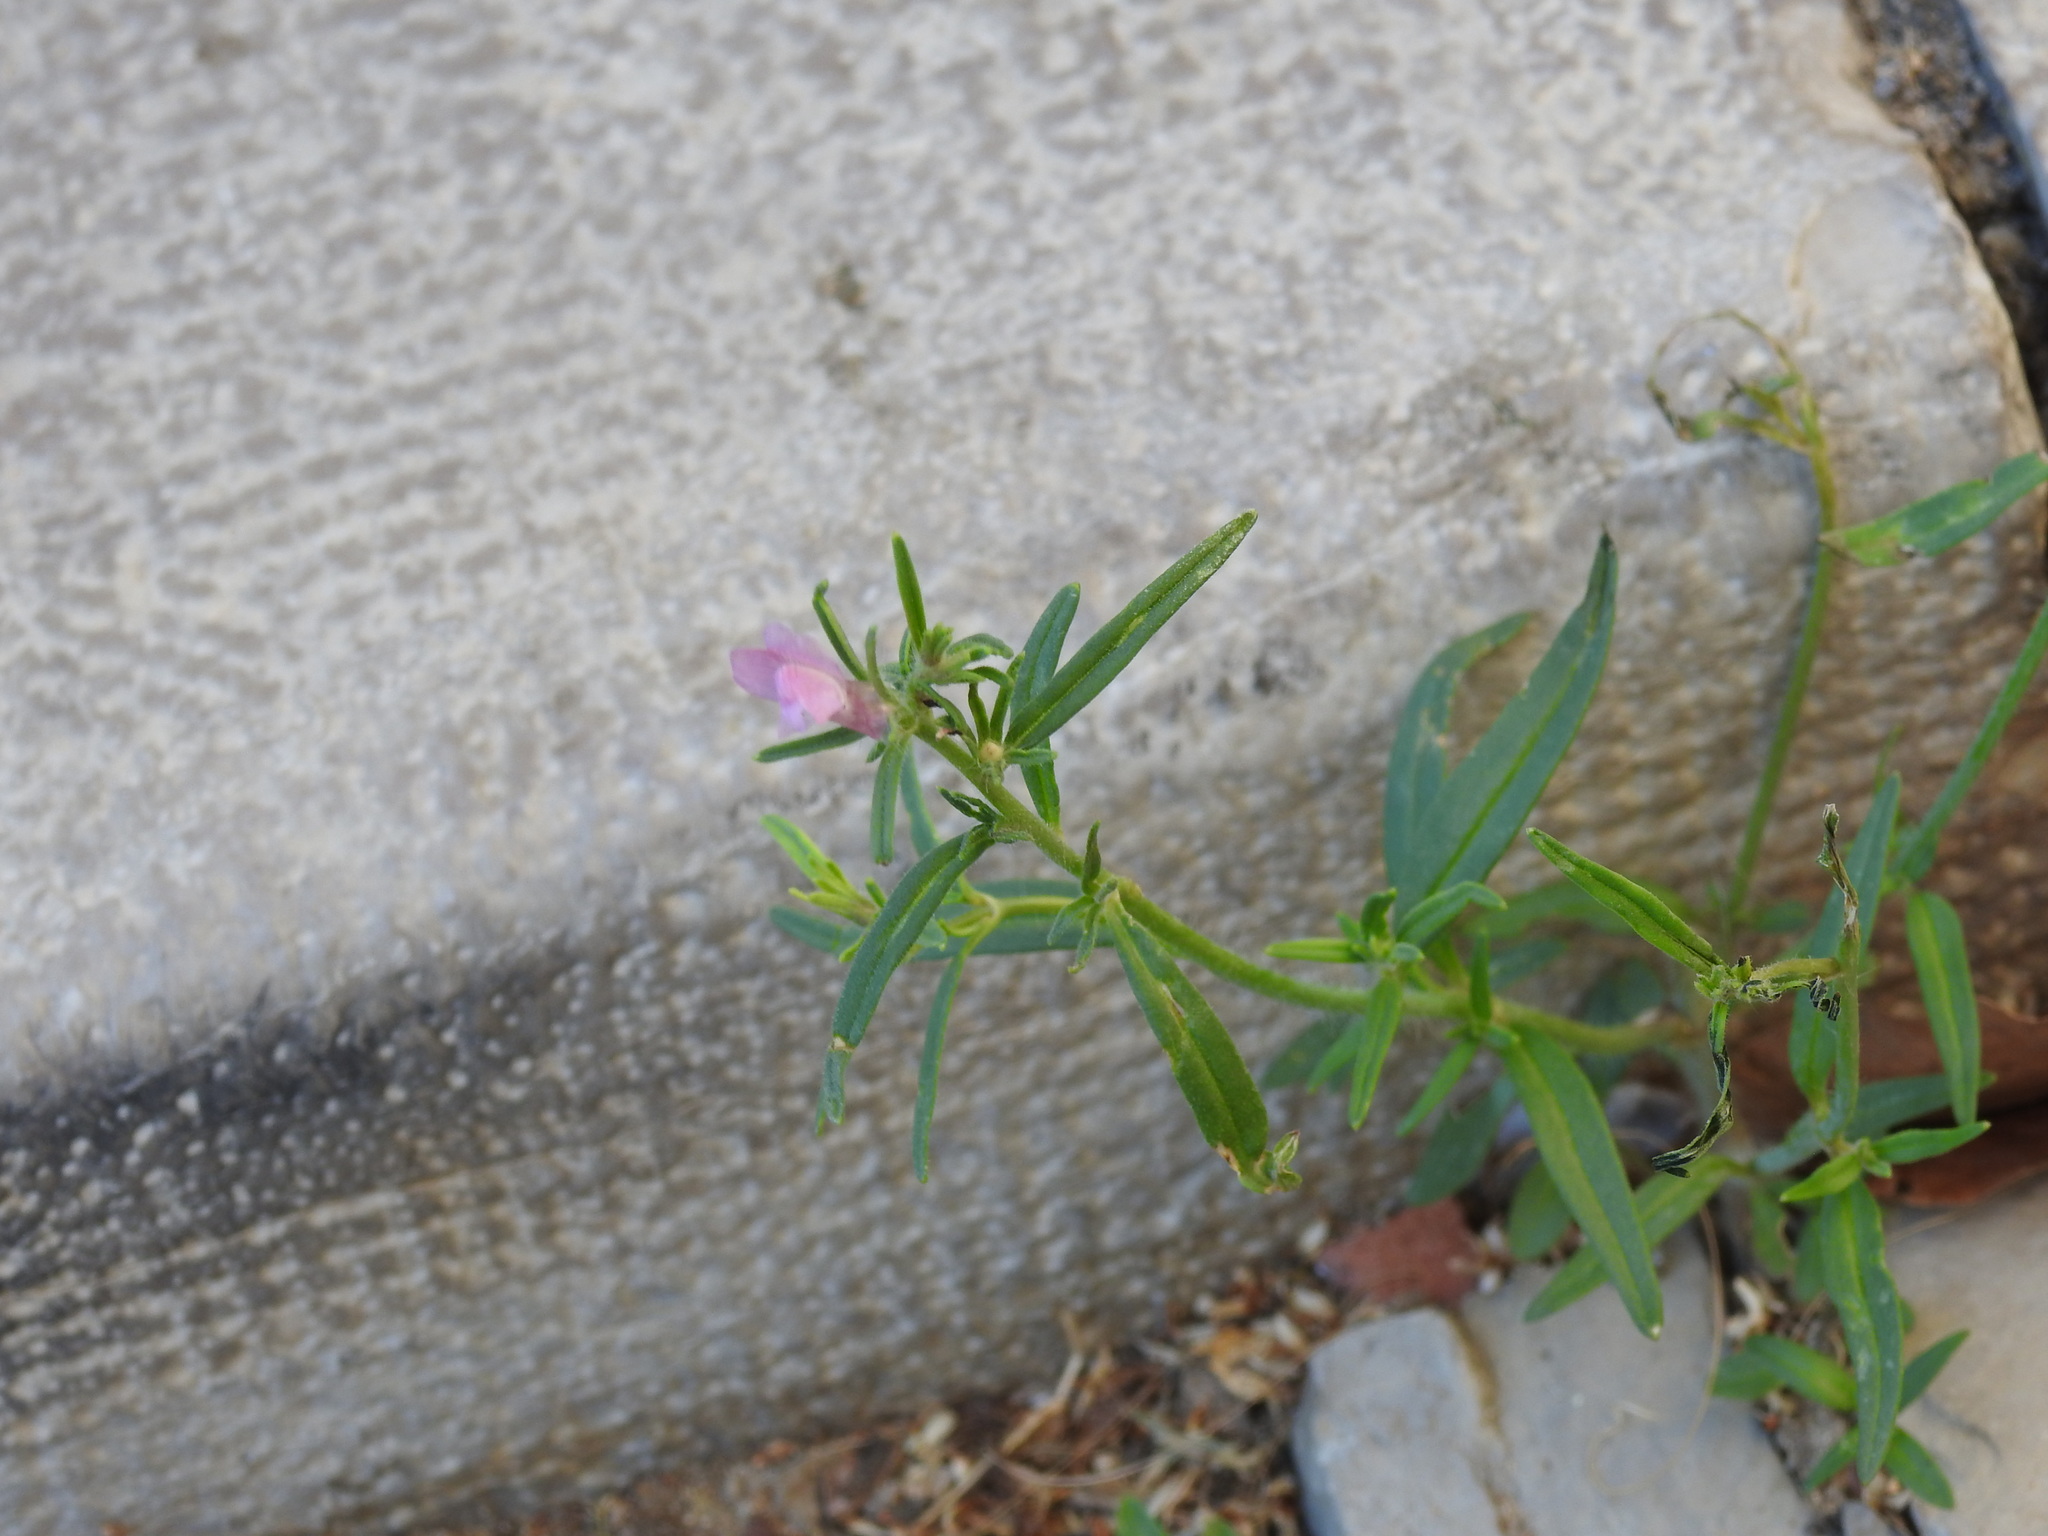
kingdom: Plantae
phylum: Tracheophyta
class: Magnoliopsida
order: Lamiales
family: Plantaginaceae
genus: Misopates
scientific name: Misopates orontium
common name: Weasel's-snout
